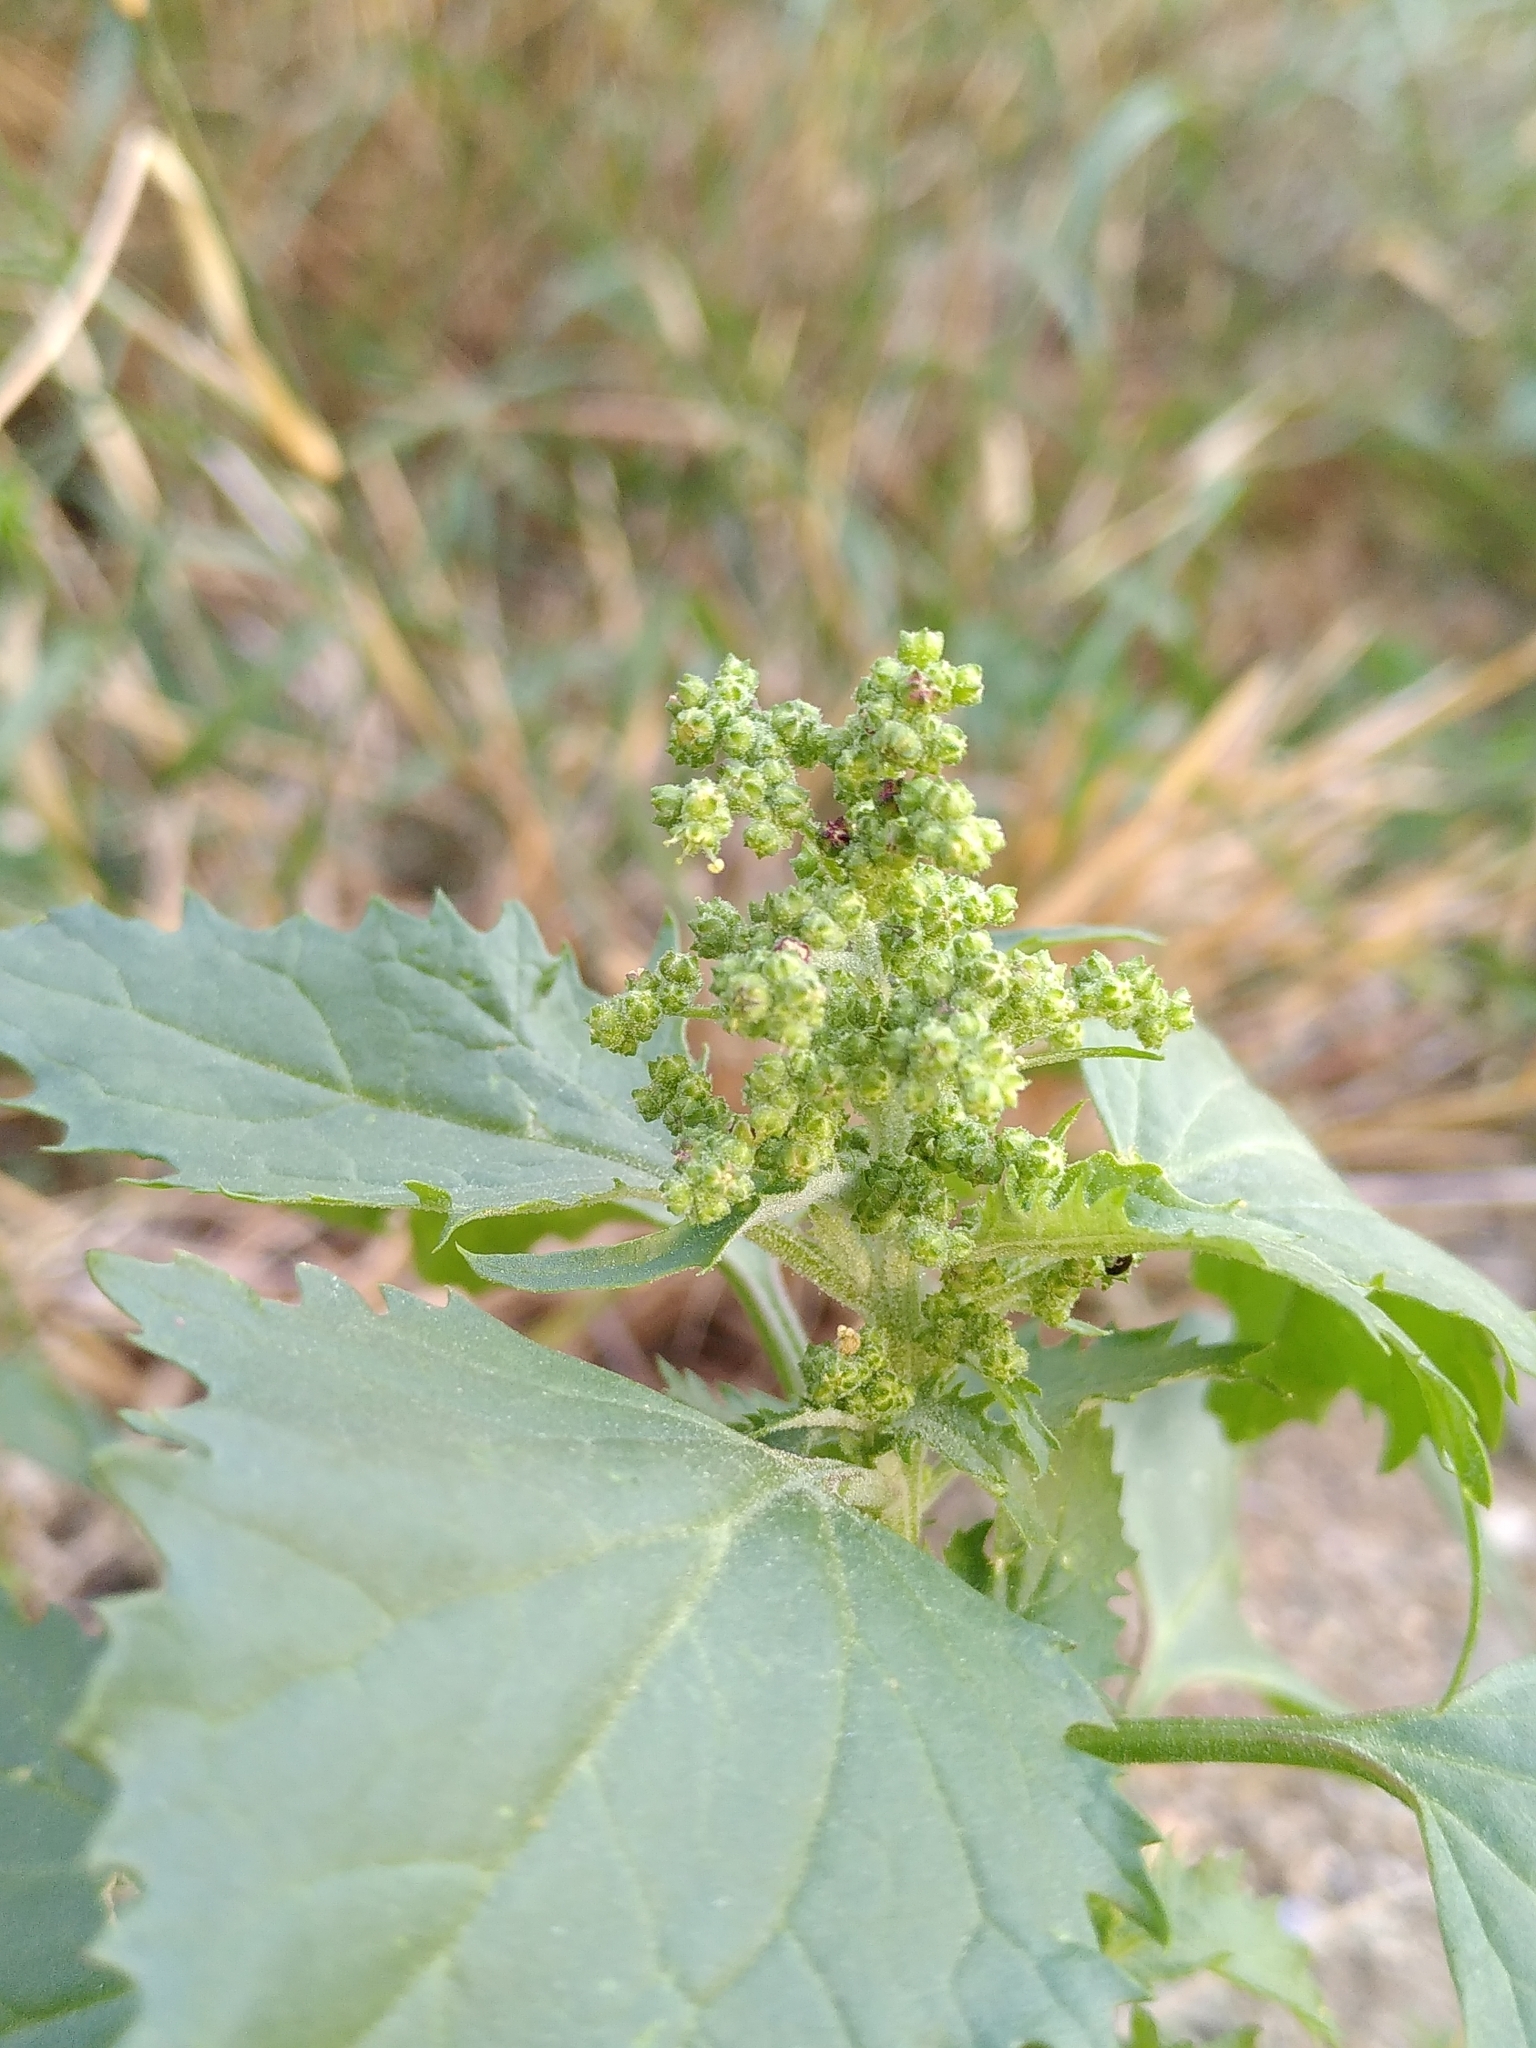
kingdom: Plantae
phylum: Tracheophyta
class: Magnoliopsida
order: Caryophyllales
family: Amaranthaceae
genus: Chenopodiastrum
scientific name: Chenopodiastrum murale
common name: Sowbane
